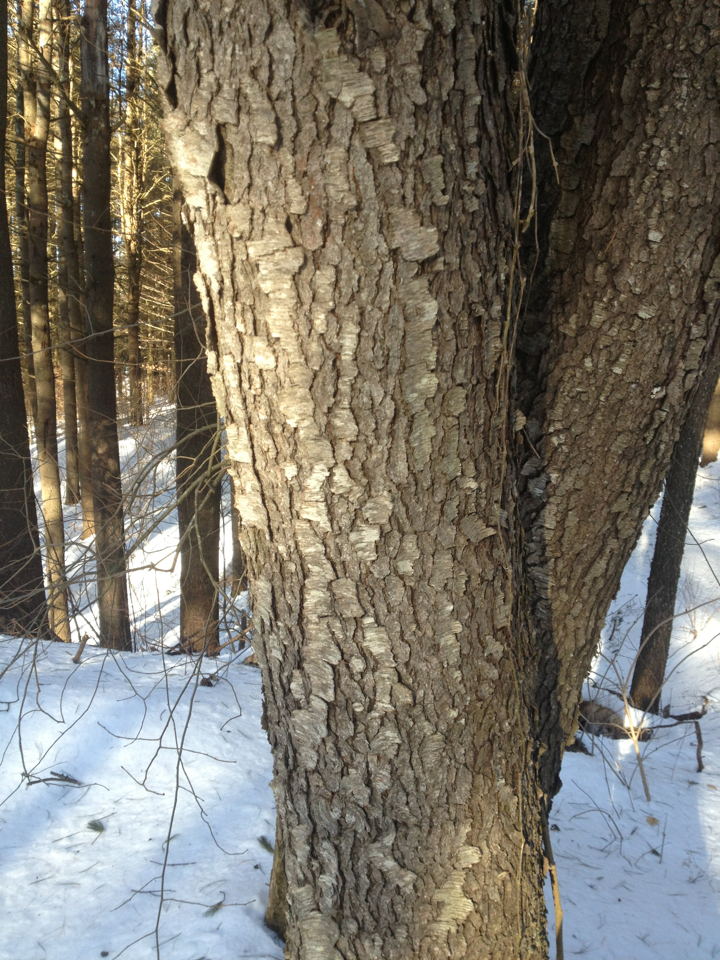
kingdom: Plantae
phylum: Tracheophyta
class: Magnoliopsida
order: Rosales
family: Rosaceae
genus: Prunus
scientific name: Prunus serotina
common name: Black cherry
